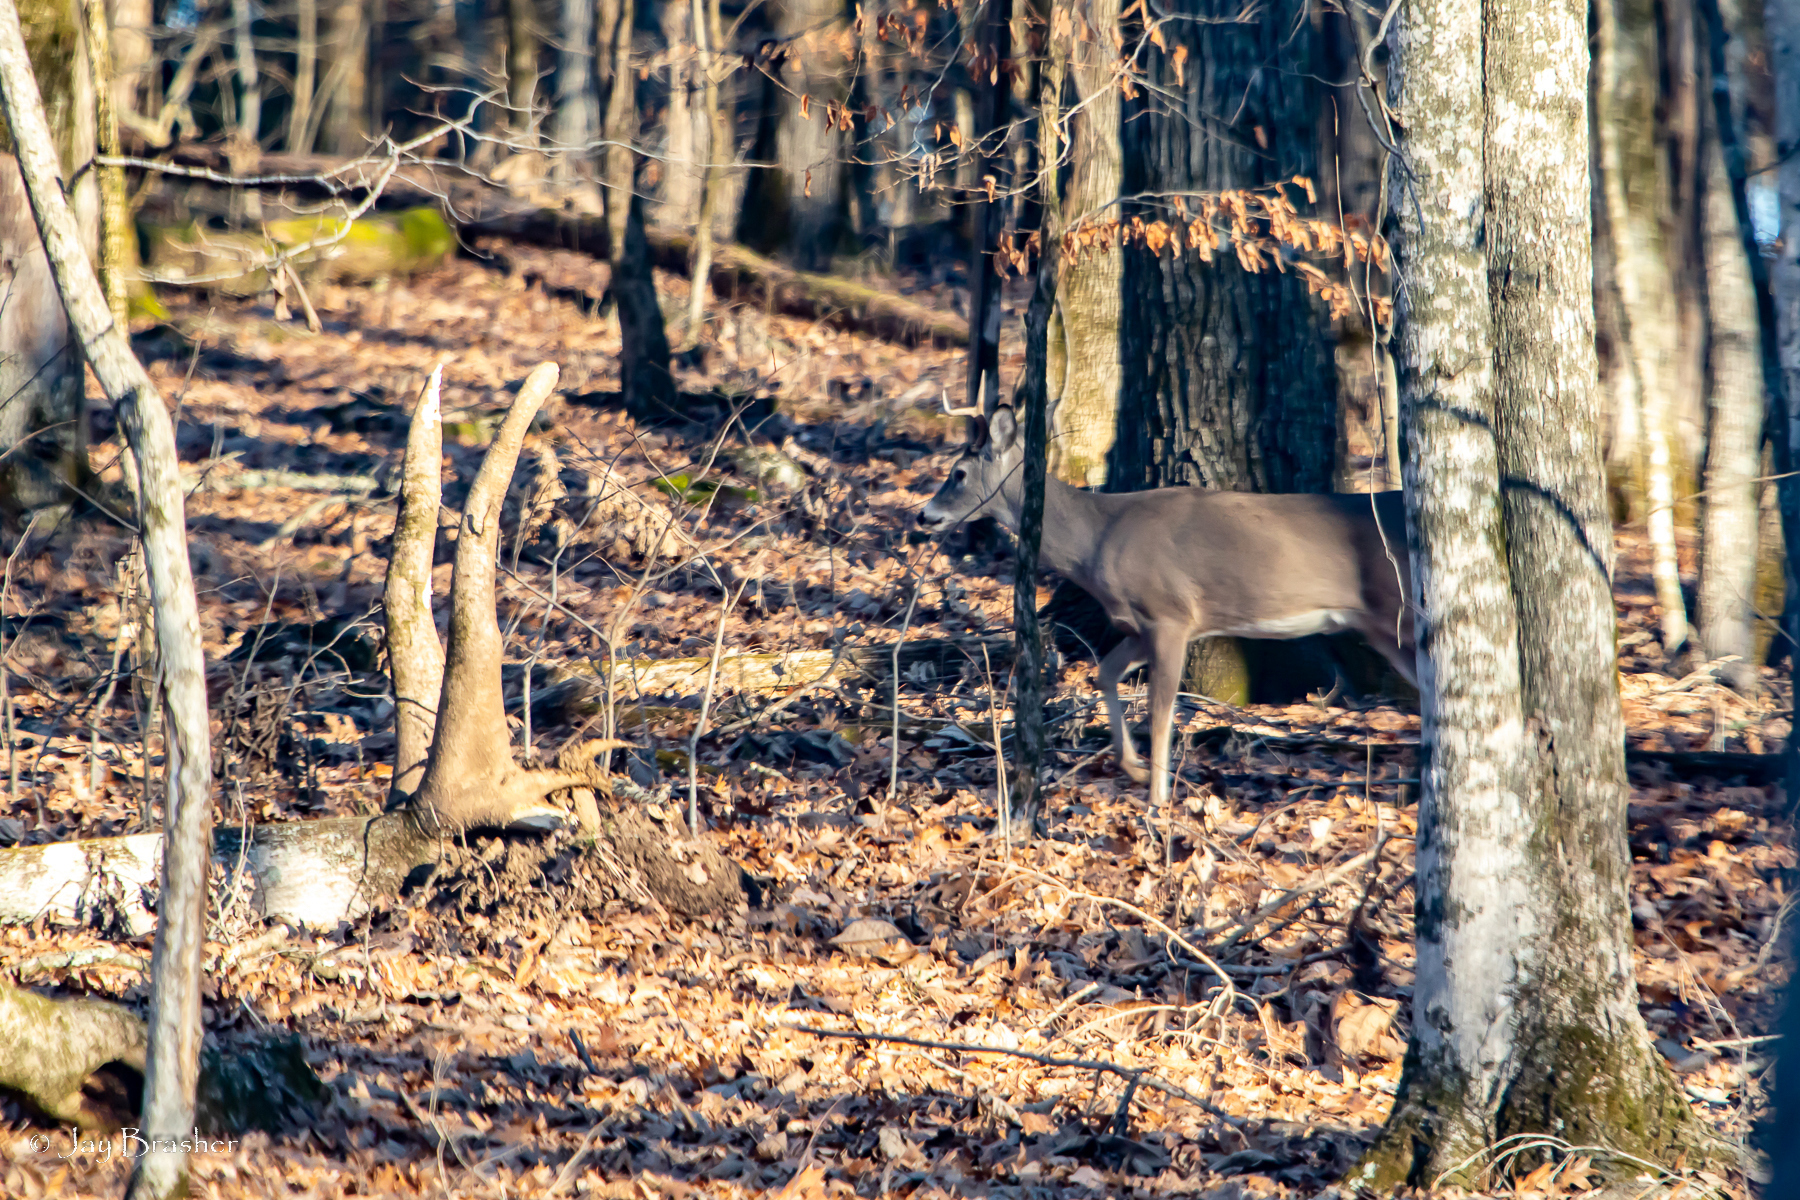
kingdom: Animalia
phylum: Chordata
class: Mammalia
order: Artiodactyla
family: Cervidae
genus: Odocoileus
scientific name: Odocoileus virginianus
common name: White-tailed deer
